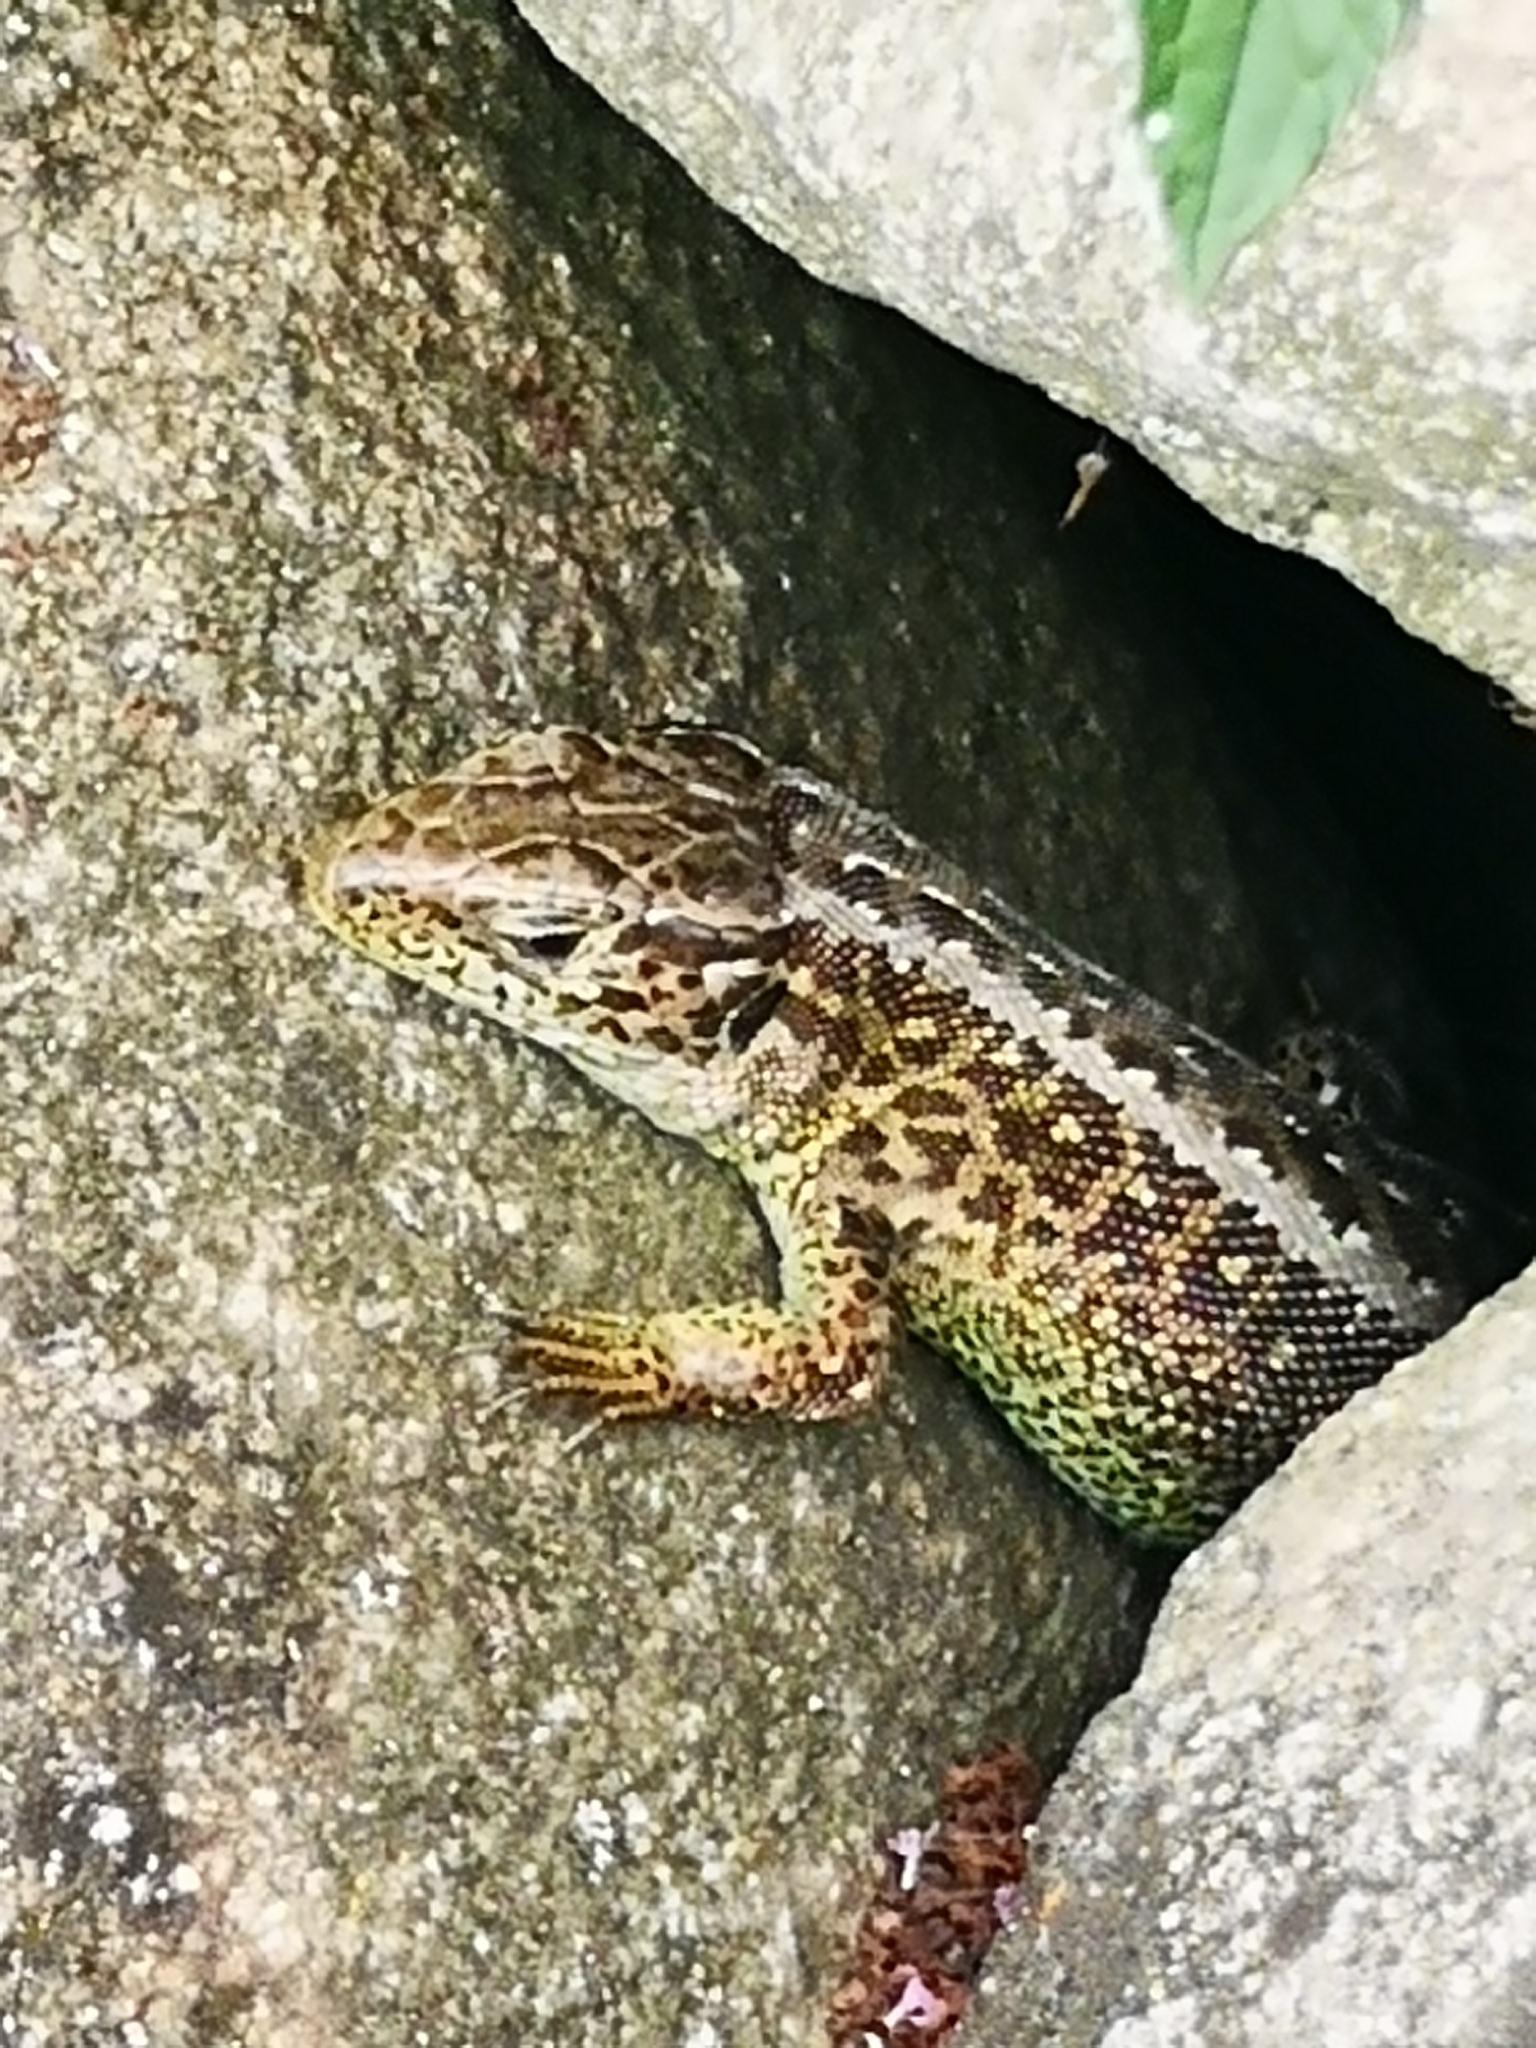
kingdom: Animalia
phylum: Chordata
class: Squamata
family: Lacertidae
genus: Lacerta
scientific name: Lacerta agilis
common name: Sand lizard
